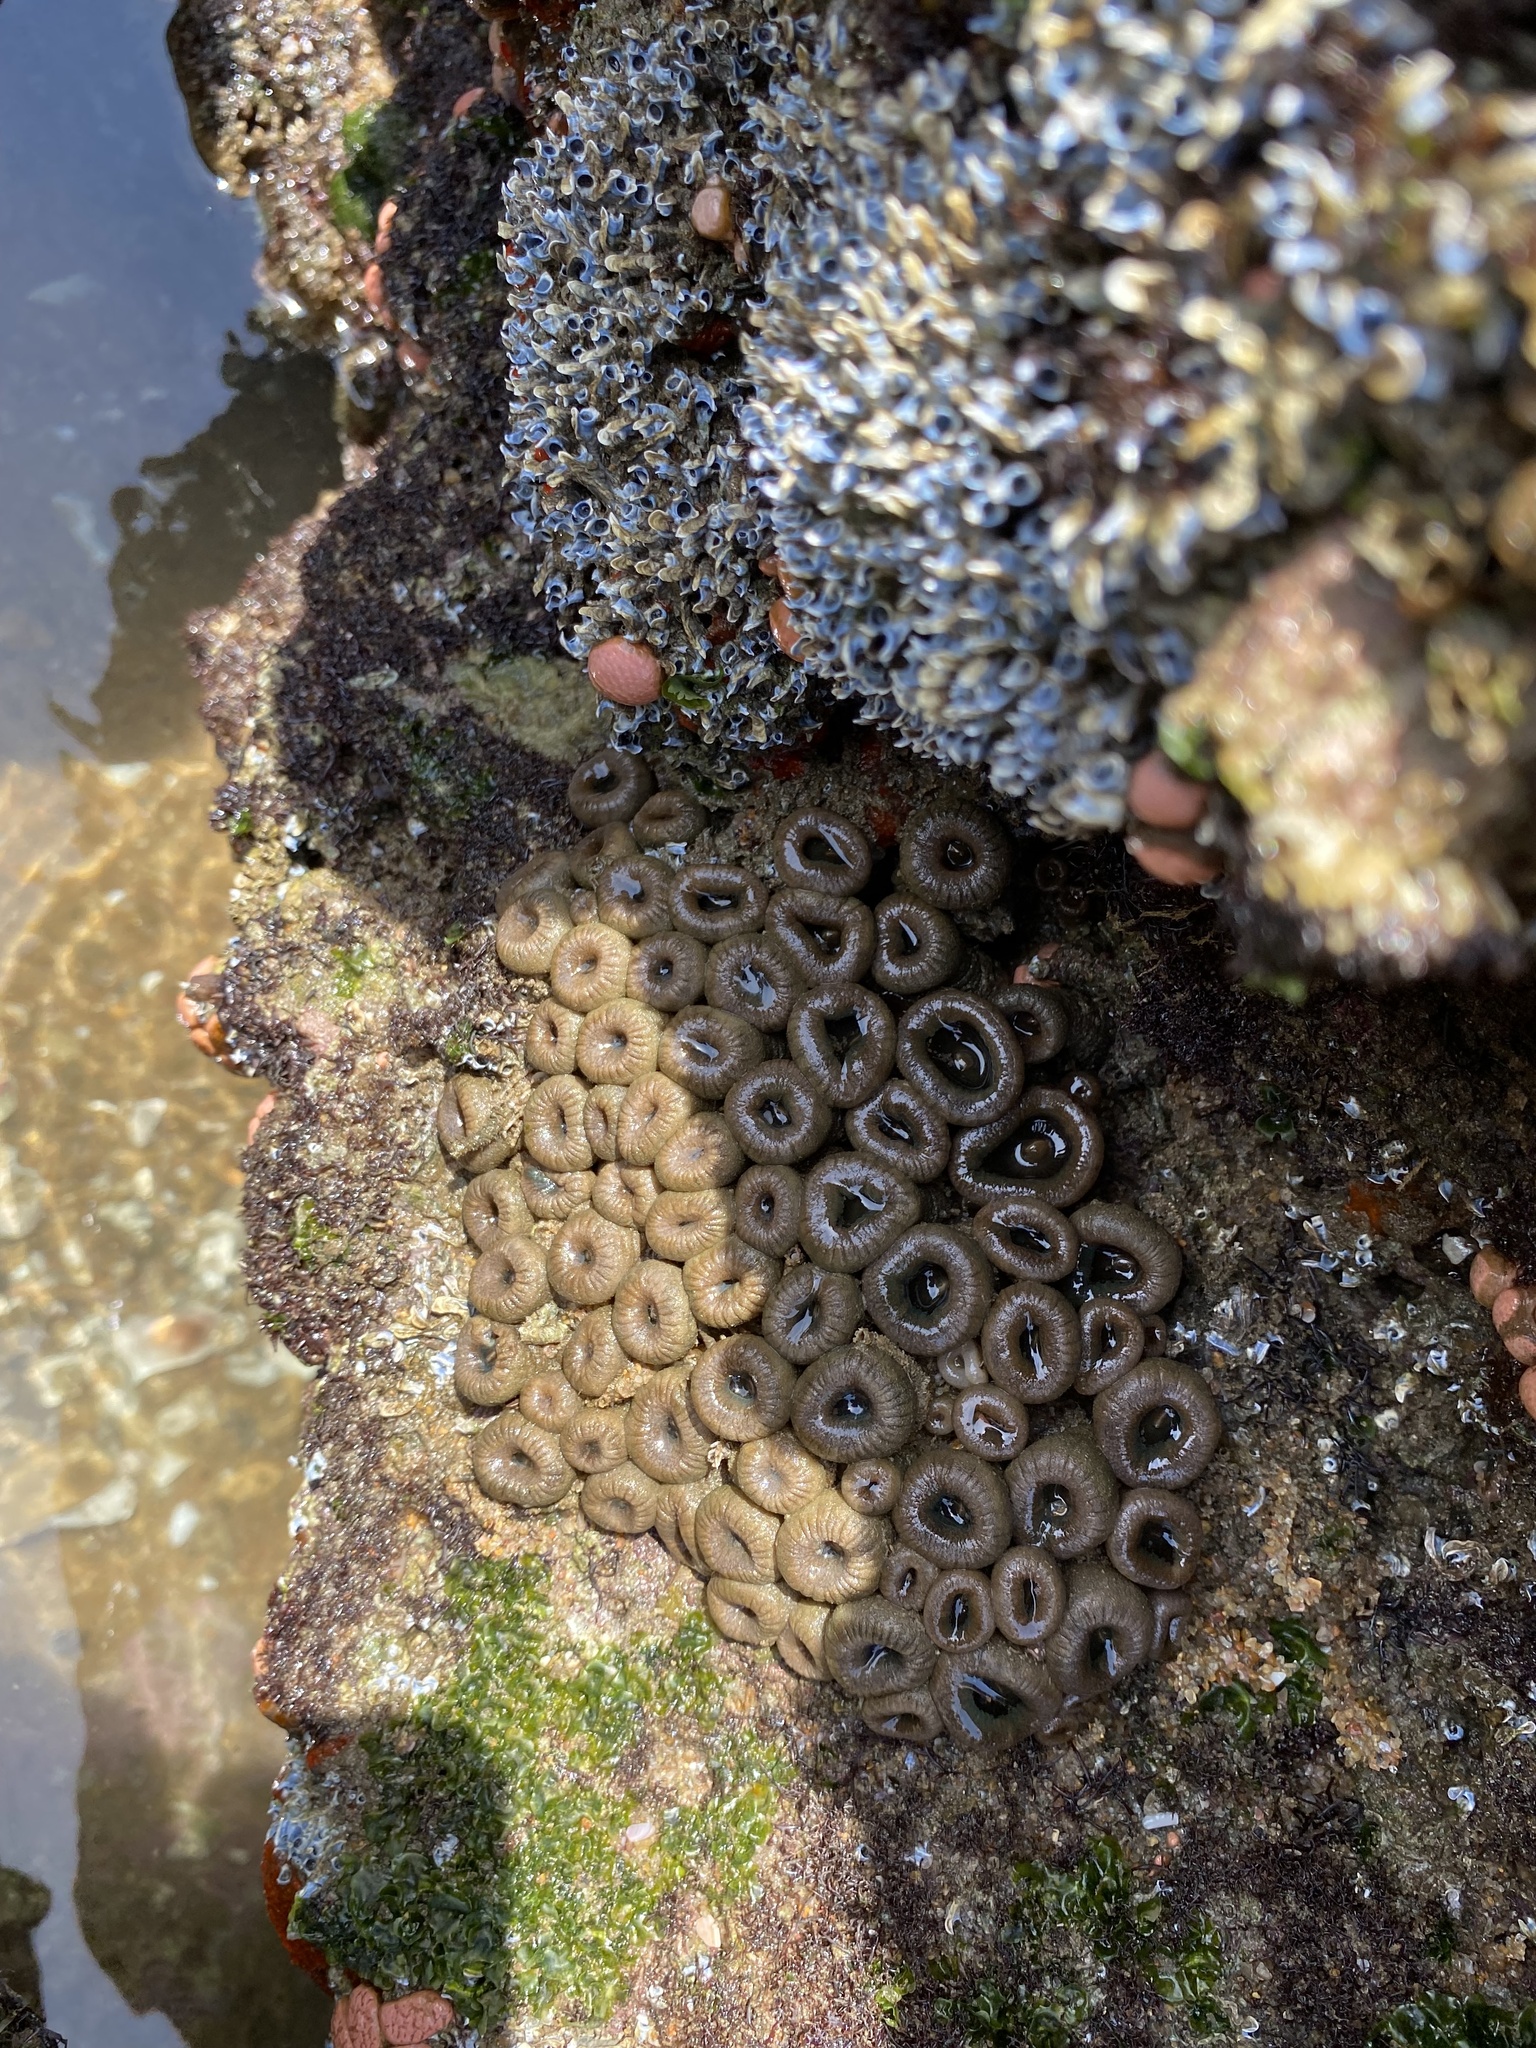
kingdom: Animalia
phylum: Cnidaria
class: Anthozoa
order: Zoantharia
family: Sphenopidae
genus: Palythoa
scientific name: Palythoa mutuki
